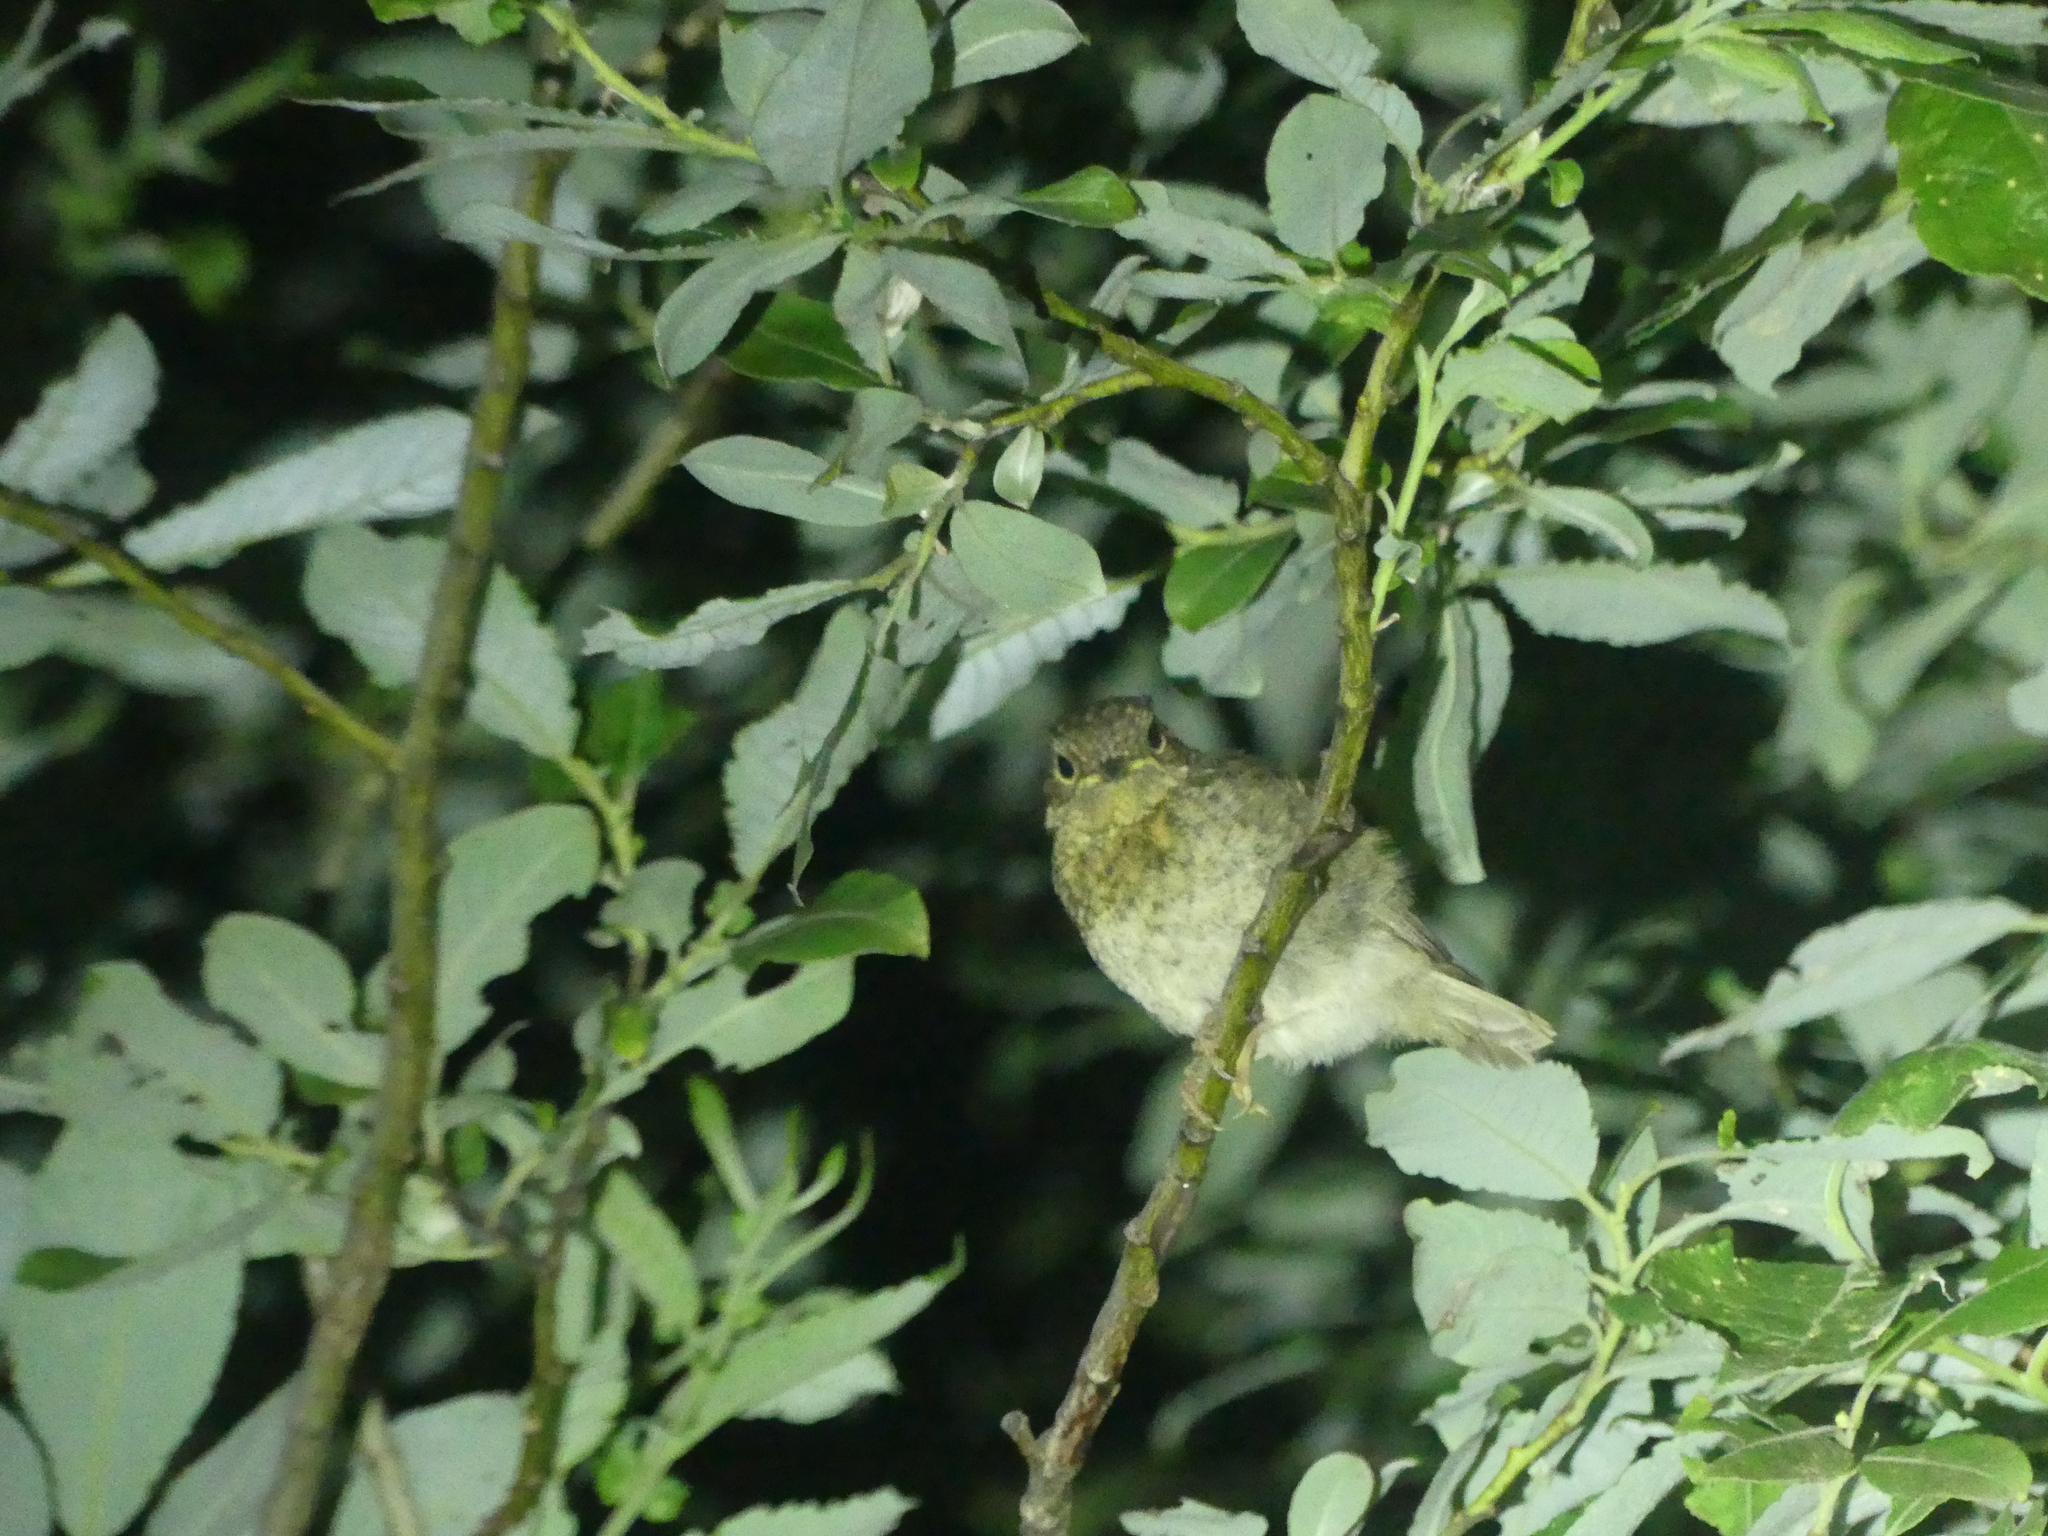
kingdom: Animalia
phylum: Chordata
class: Aves
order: Passeriformes
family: Muscicapidae
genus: Erithacus
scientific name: Erithacus rubecula
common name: European robin
